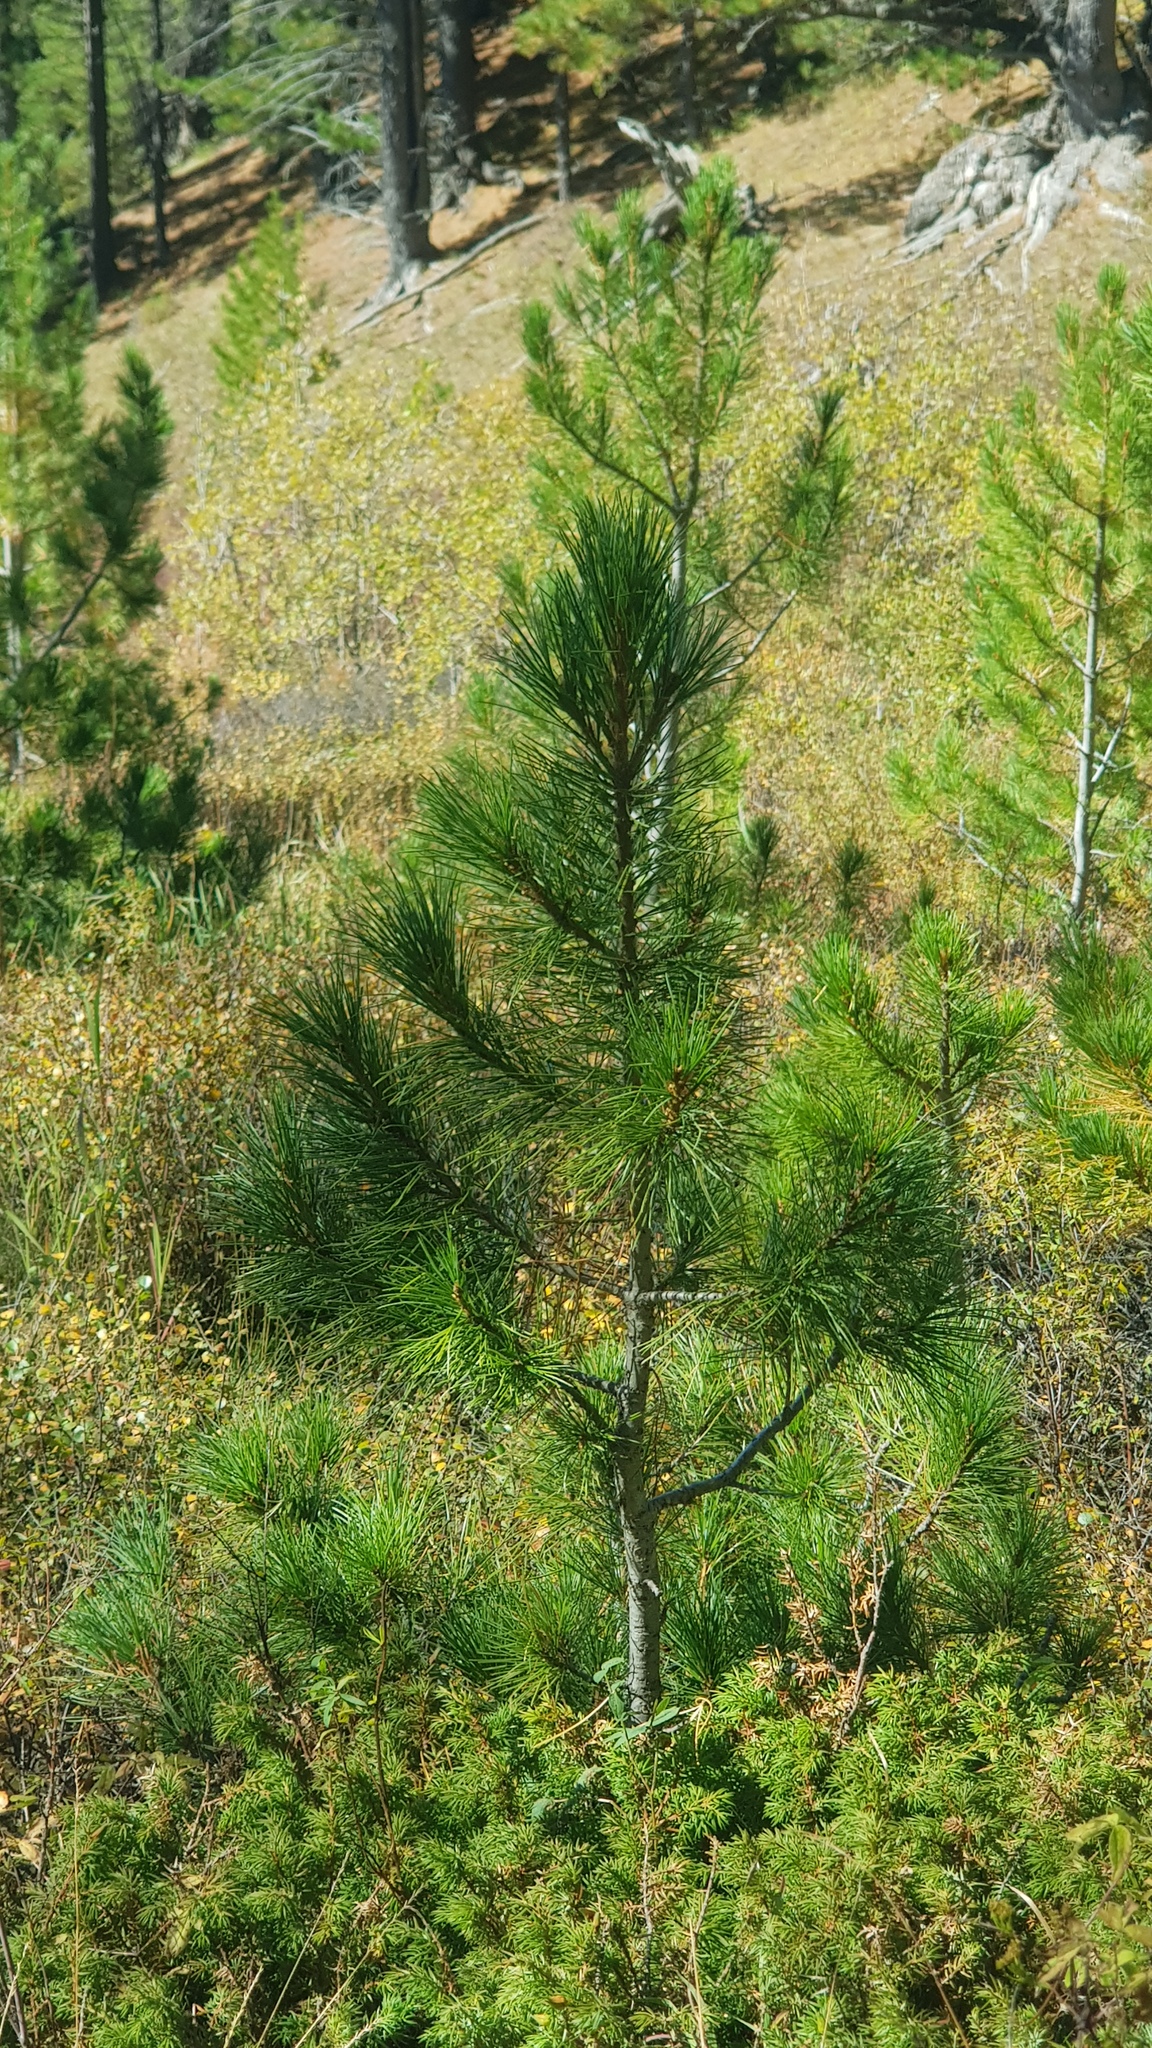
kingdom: Plantae
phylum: Tracheophyta
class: Pinopsida
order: Pinales
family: Pinaceae
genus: Pinus
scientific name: Pinus sibirica
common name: Siberian pine
